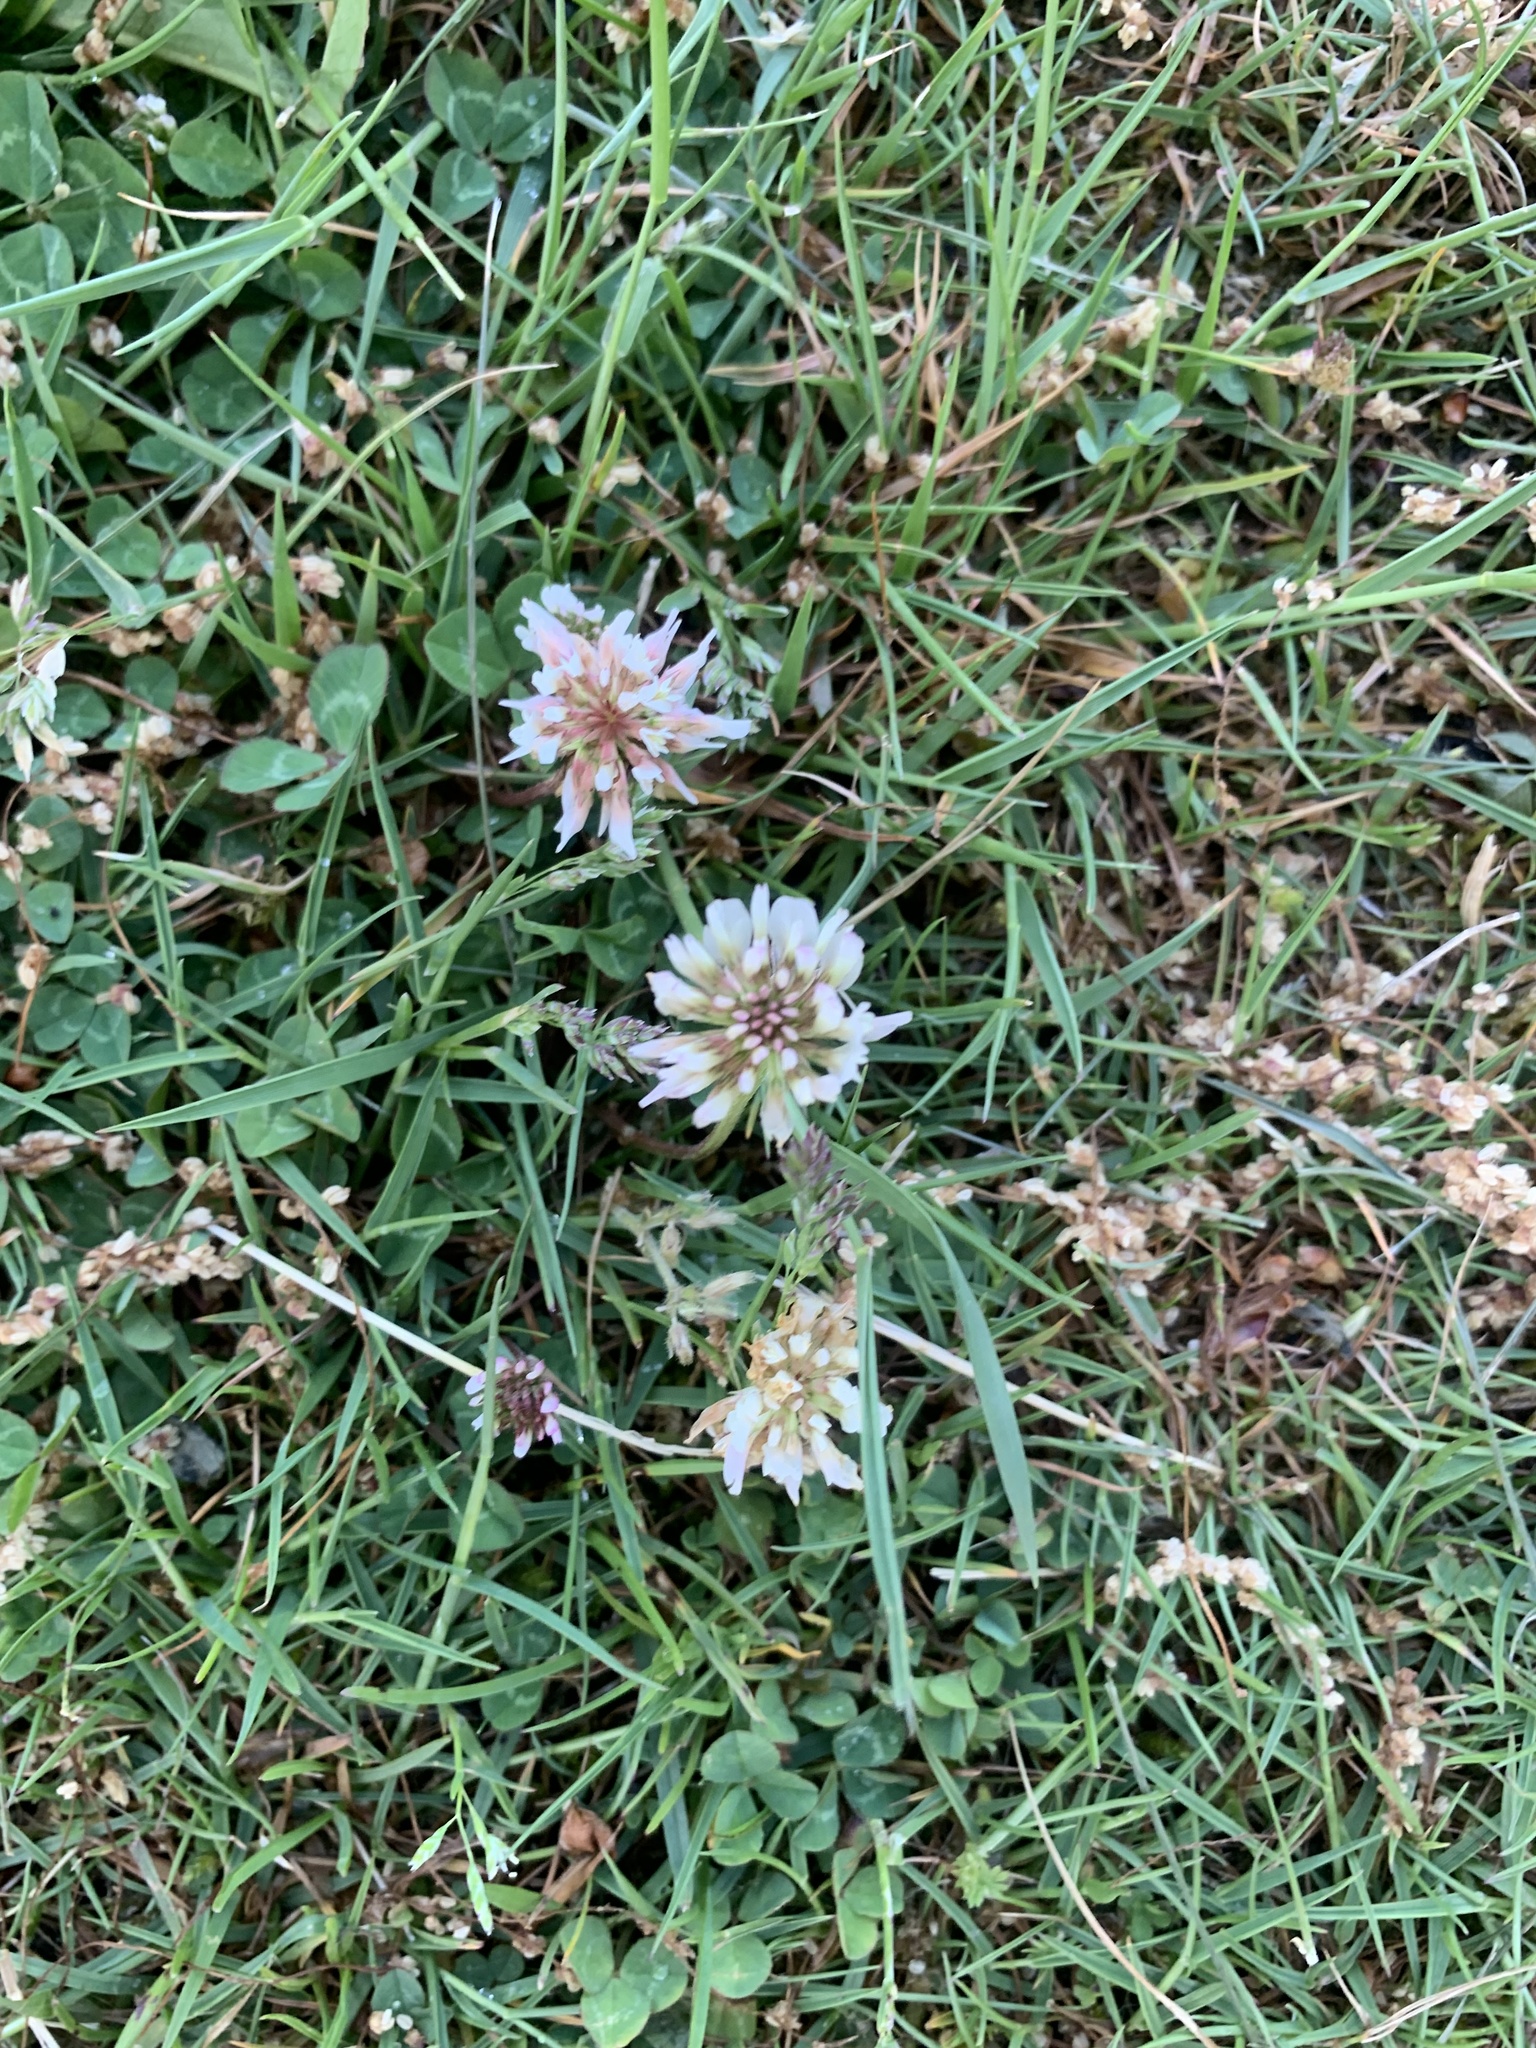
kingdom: Plantae
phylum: Tracheophyta
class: Magnoliopsida
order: Fabales
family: Fabaceae
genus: Trifolium
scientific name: Trifolium repens
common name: White clover
